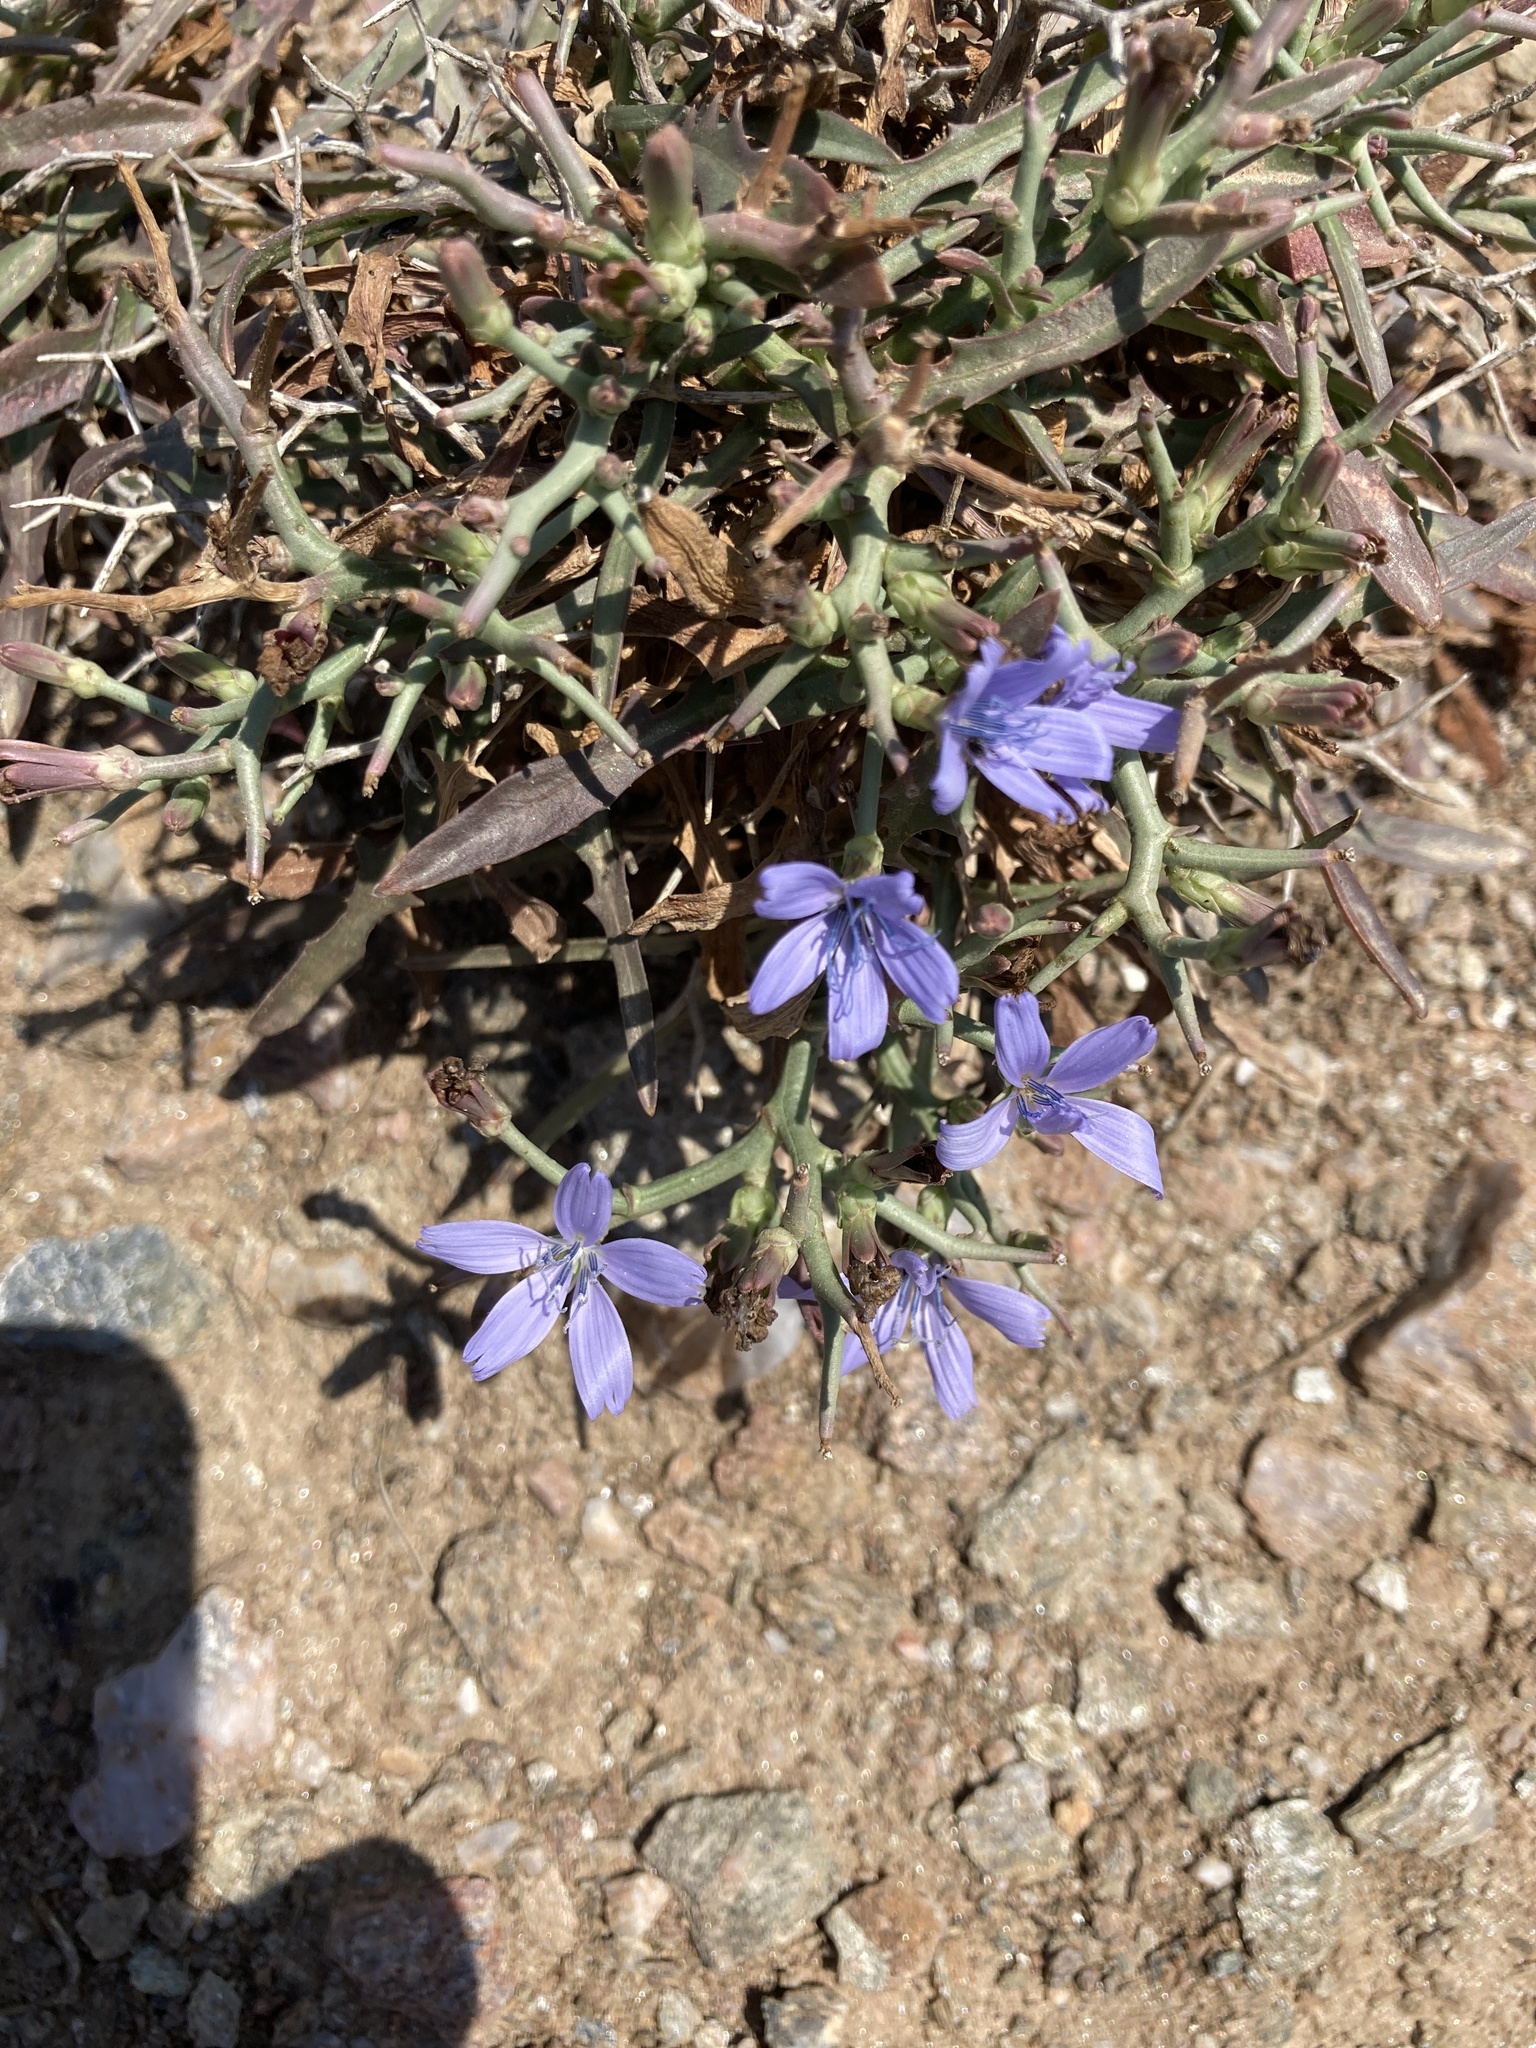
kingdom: Plantae
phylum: Tracheophyta
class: Magnoliopsida
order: Asterales
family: Asteraceae
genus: Cichorium
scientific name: Cichorium spinosum
